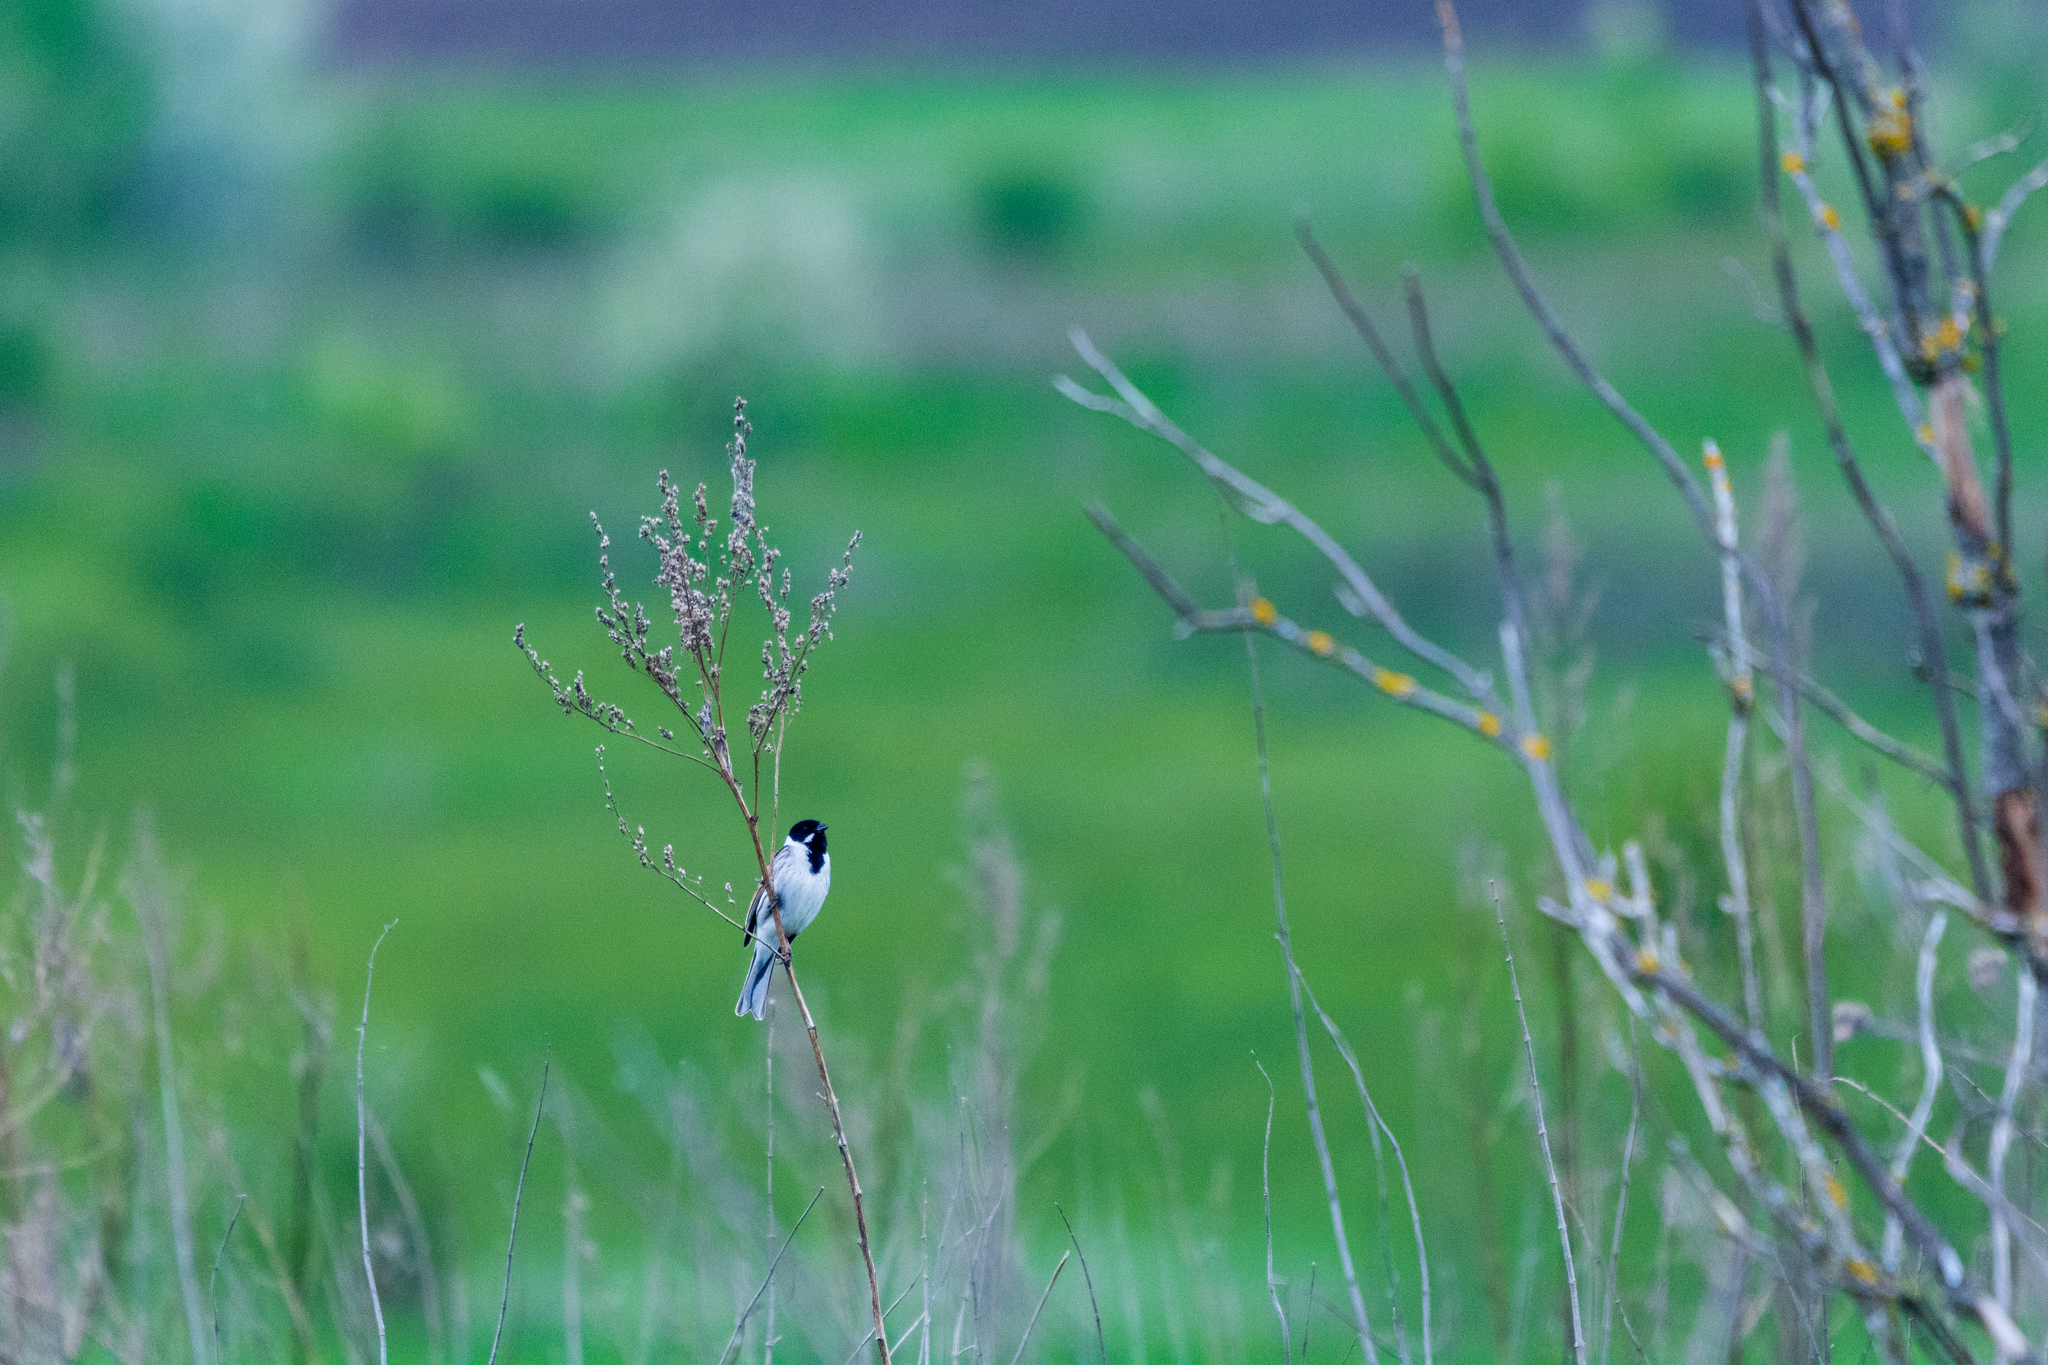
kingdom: Animalia
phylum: Chordata
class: Aves
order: Passeriformes
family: Emberizidae
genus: Emberiza
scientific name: Emberiza schoeniclus
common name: Reed bunting
